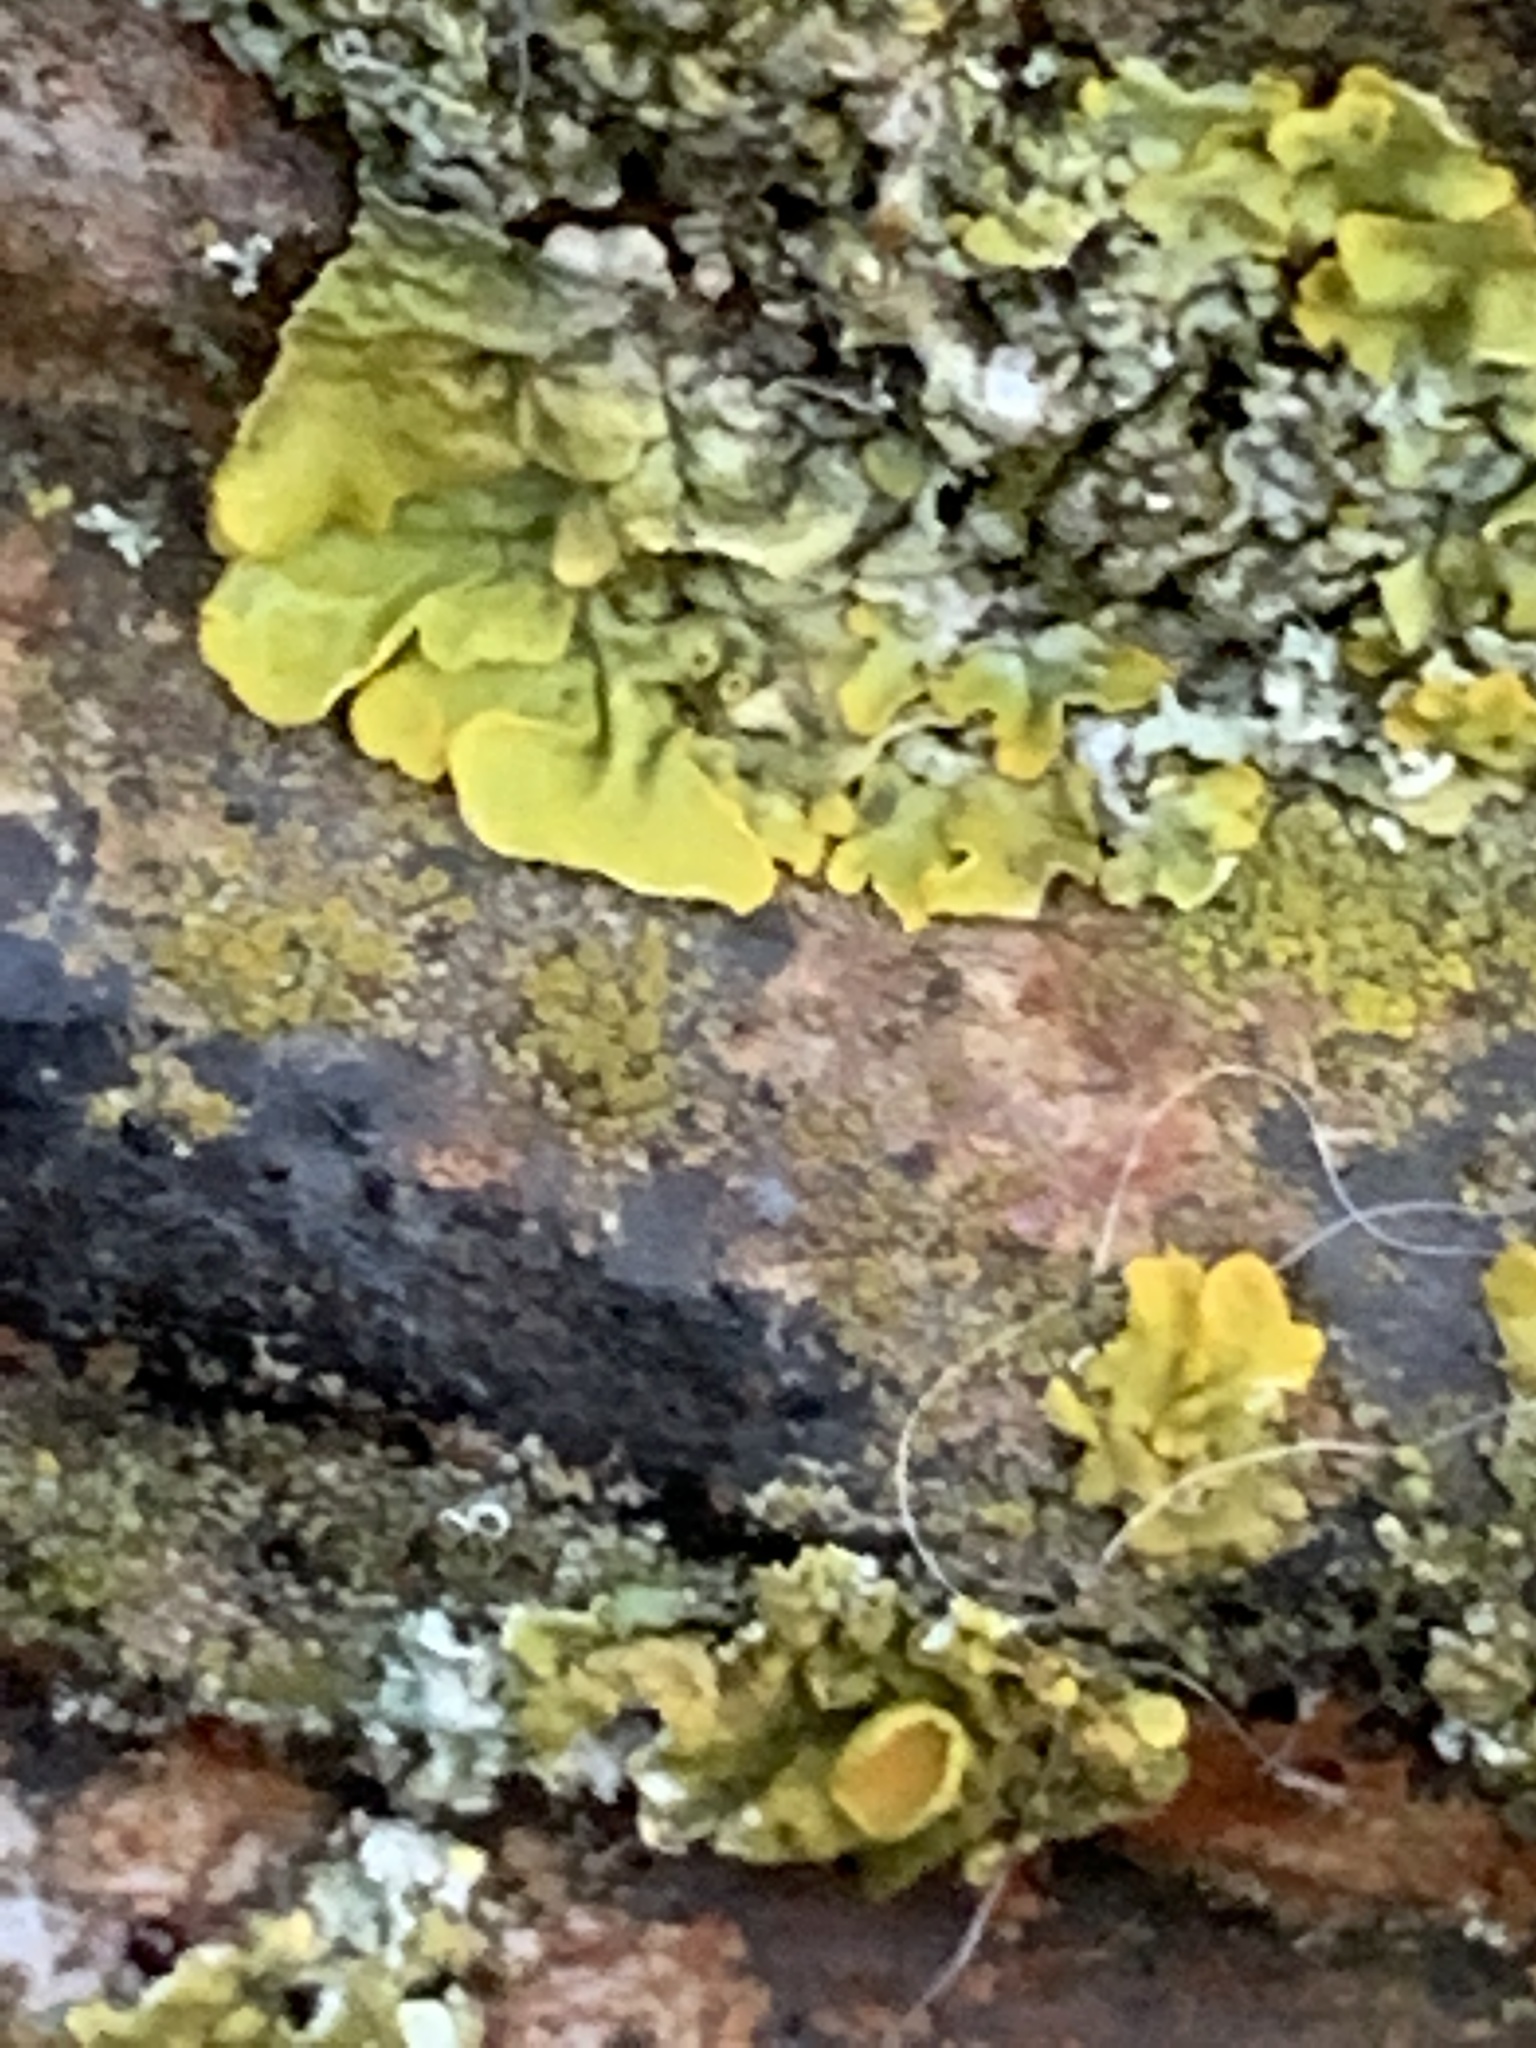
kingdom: Fungi
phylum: Ascomycota
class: Lecanoromycetes
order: Teloschistales
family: Teloschistaceae
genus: Xanthoria
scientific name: Xanthoria parietina
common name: Common orange lichen
